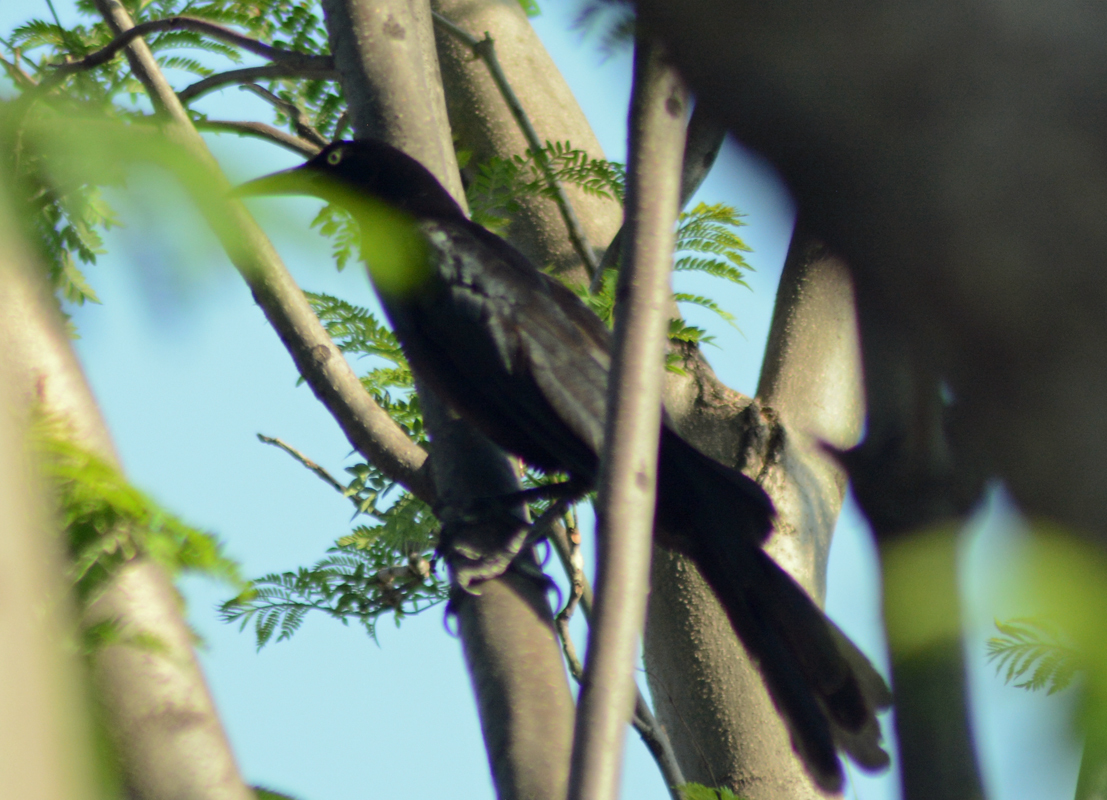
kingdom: Animalia
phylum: Chordata
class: Aves
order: Passeriformes
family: Icteridae
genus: Quiscalus
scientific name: Quiscalus mexicanus
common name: Great-tailed grackle
